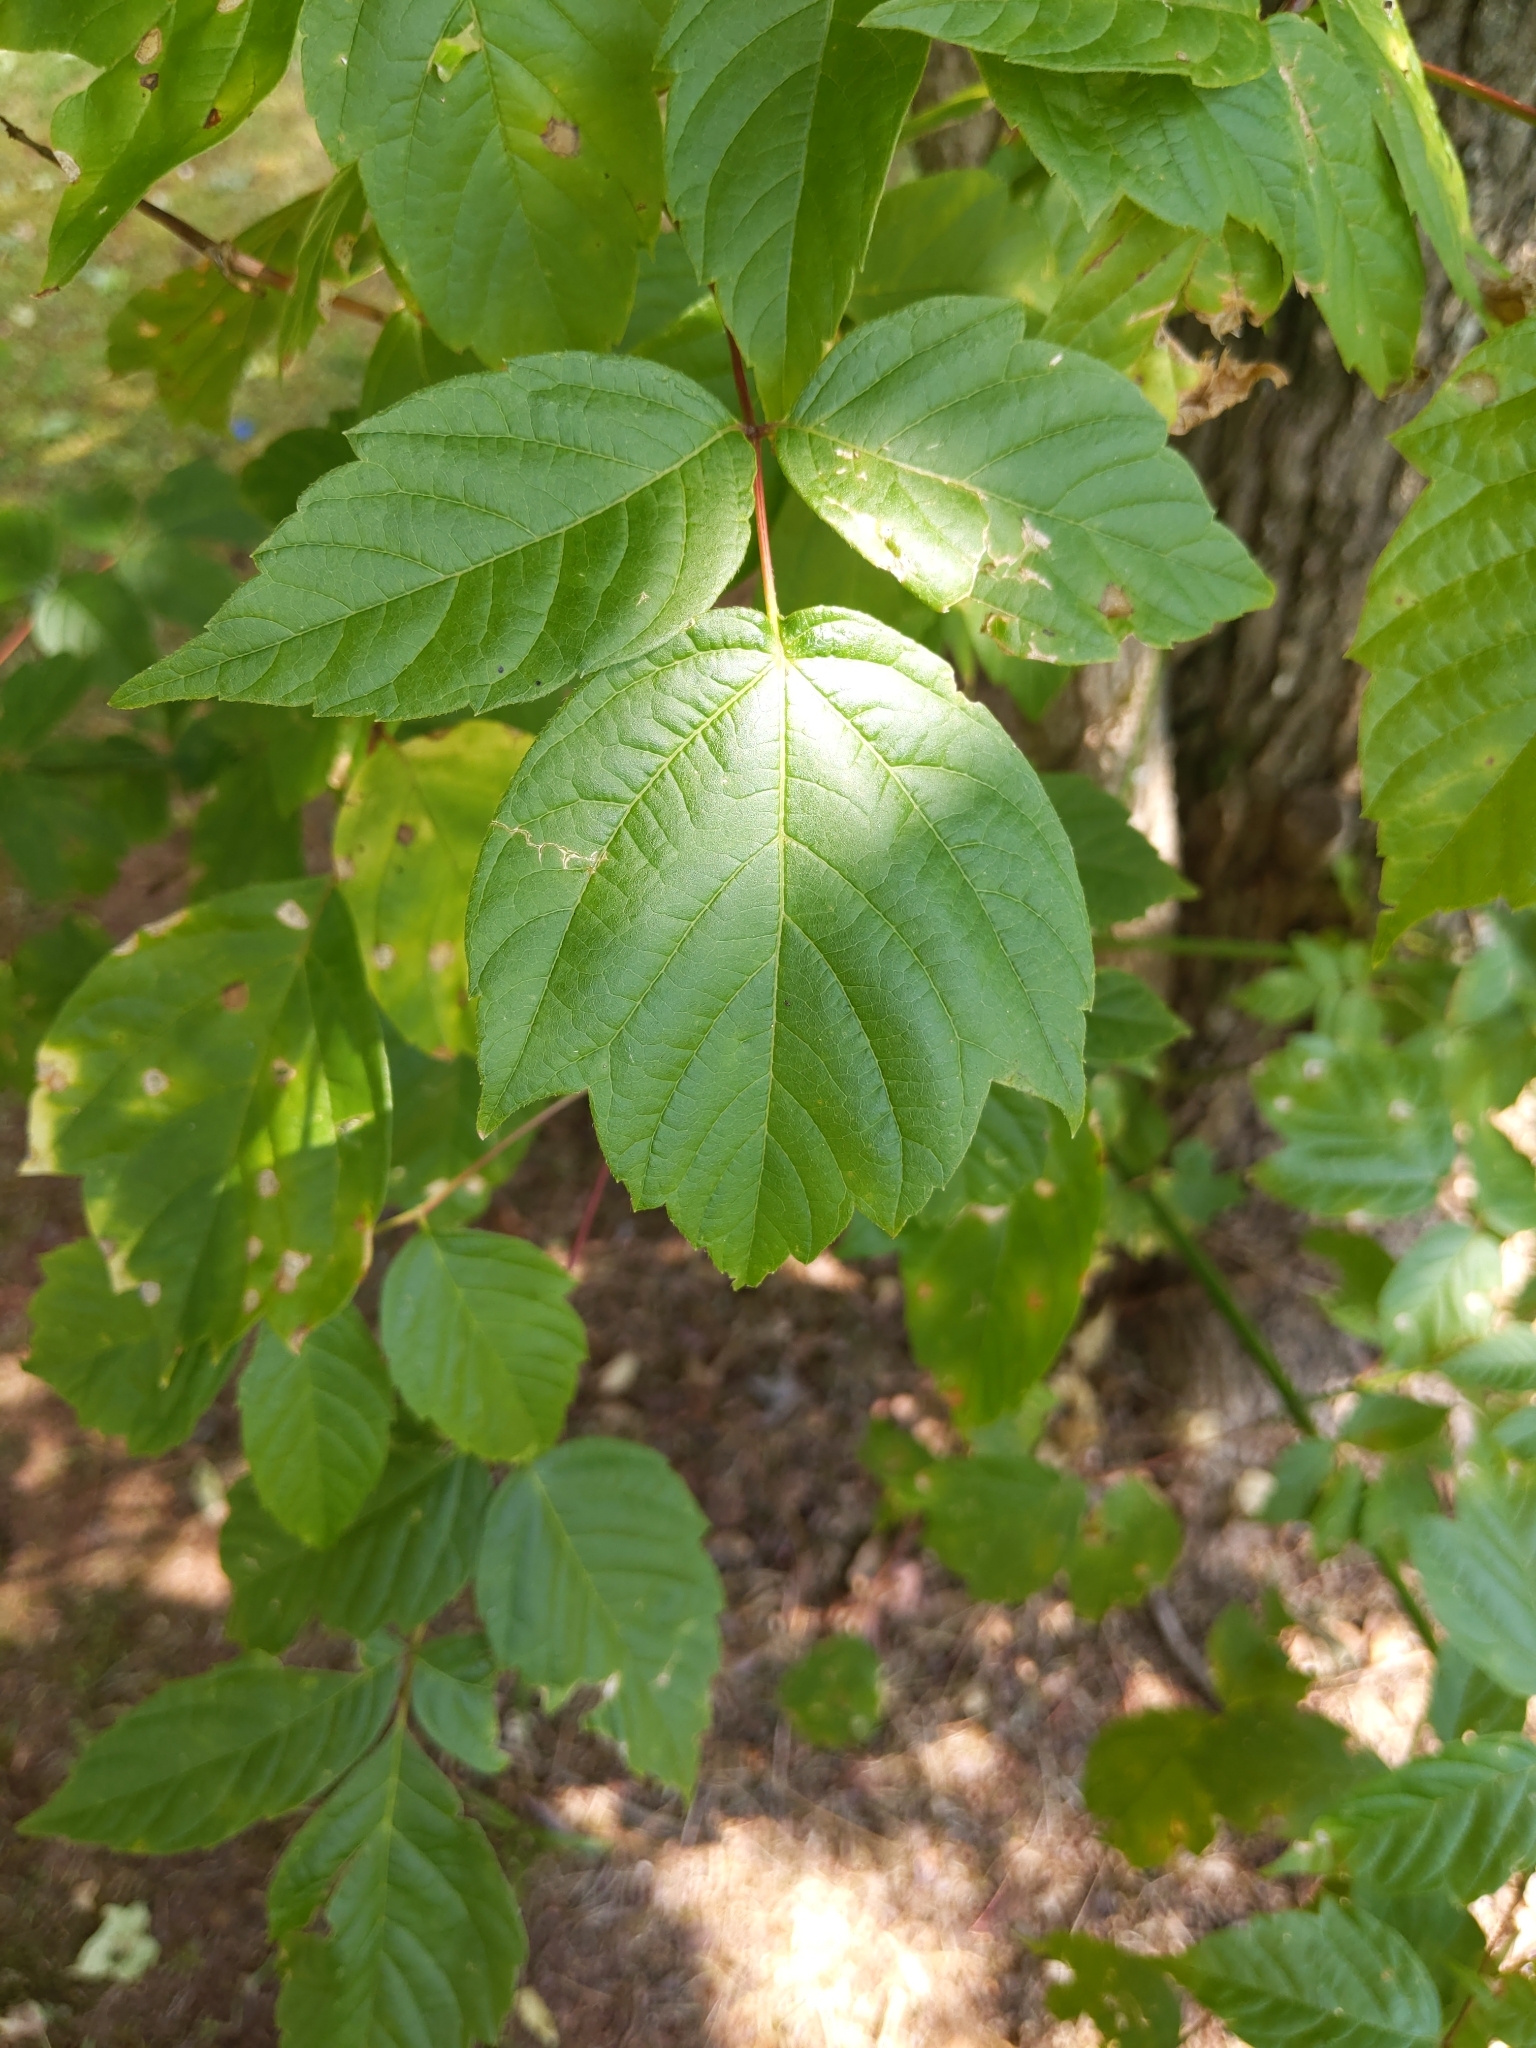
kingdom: Plantae
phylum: Tracheophyta
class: Magnoliopsida
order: Sapindales
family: Sapindaceae
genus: Acer
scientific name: Acer negundo
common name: Ashleaf maple
